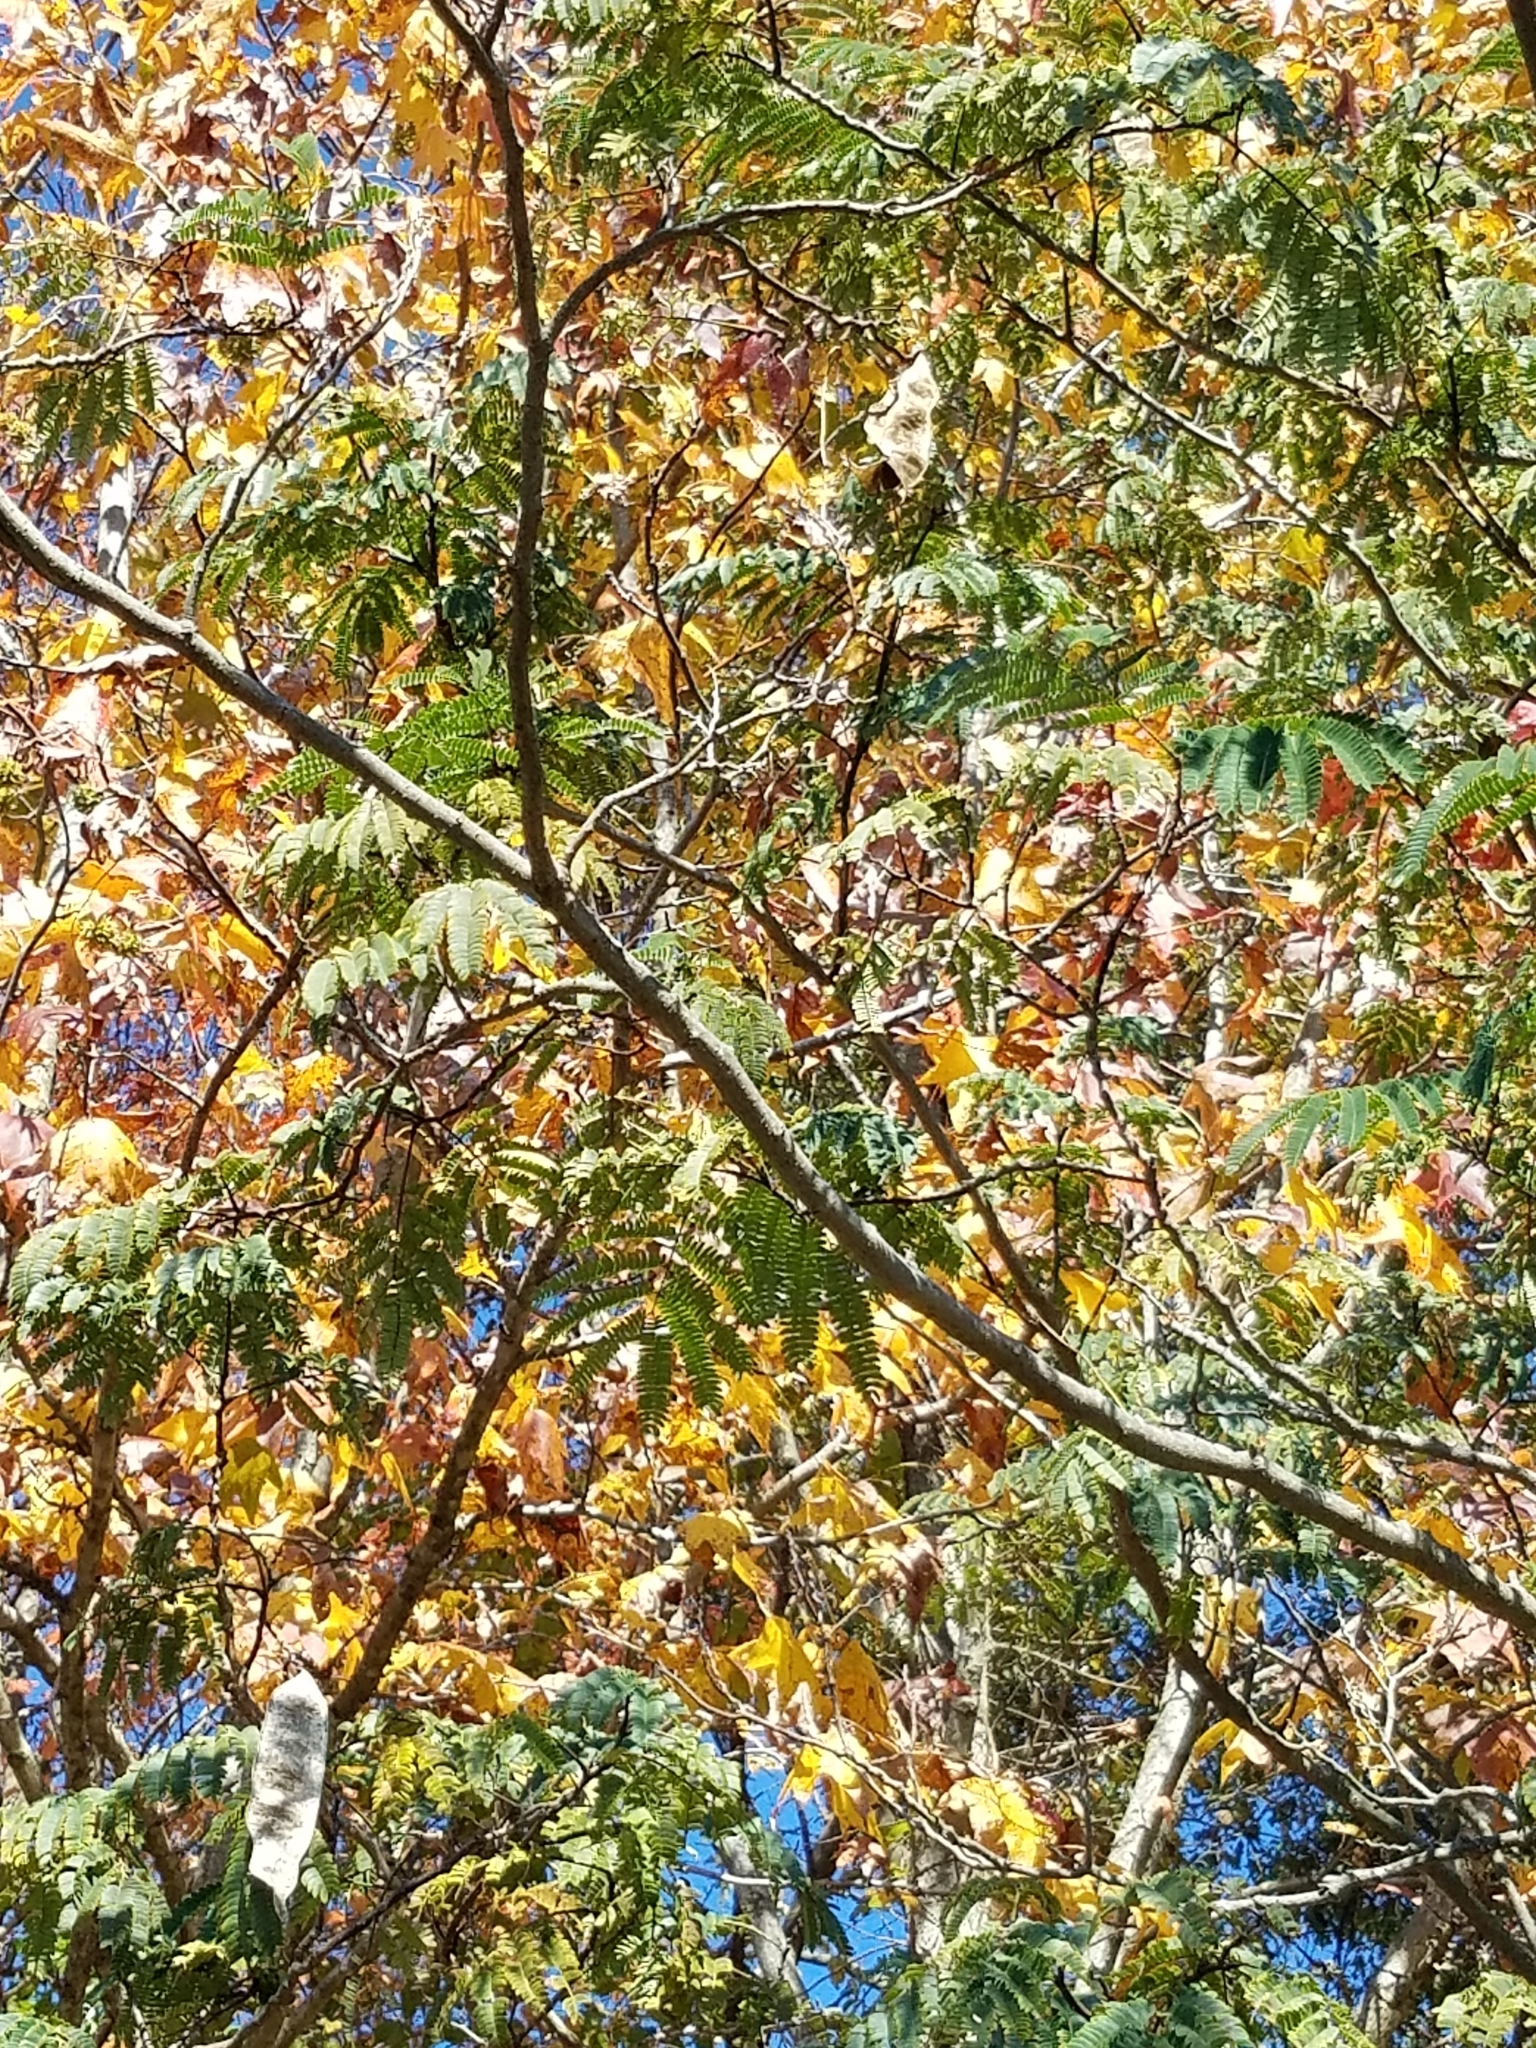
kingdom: Plantae
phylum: Tracheophyta
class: Magnoliopsida
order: Fabales
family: Fabaceae
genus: Albizia
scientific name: Albizia julibrissin
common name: Silktree
